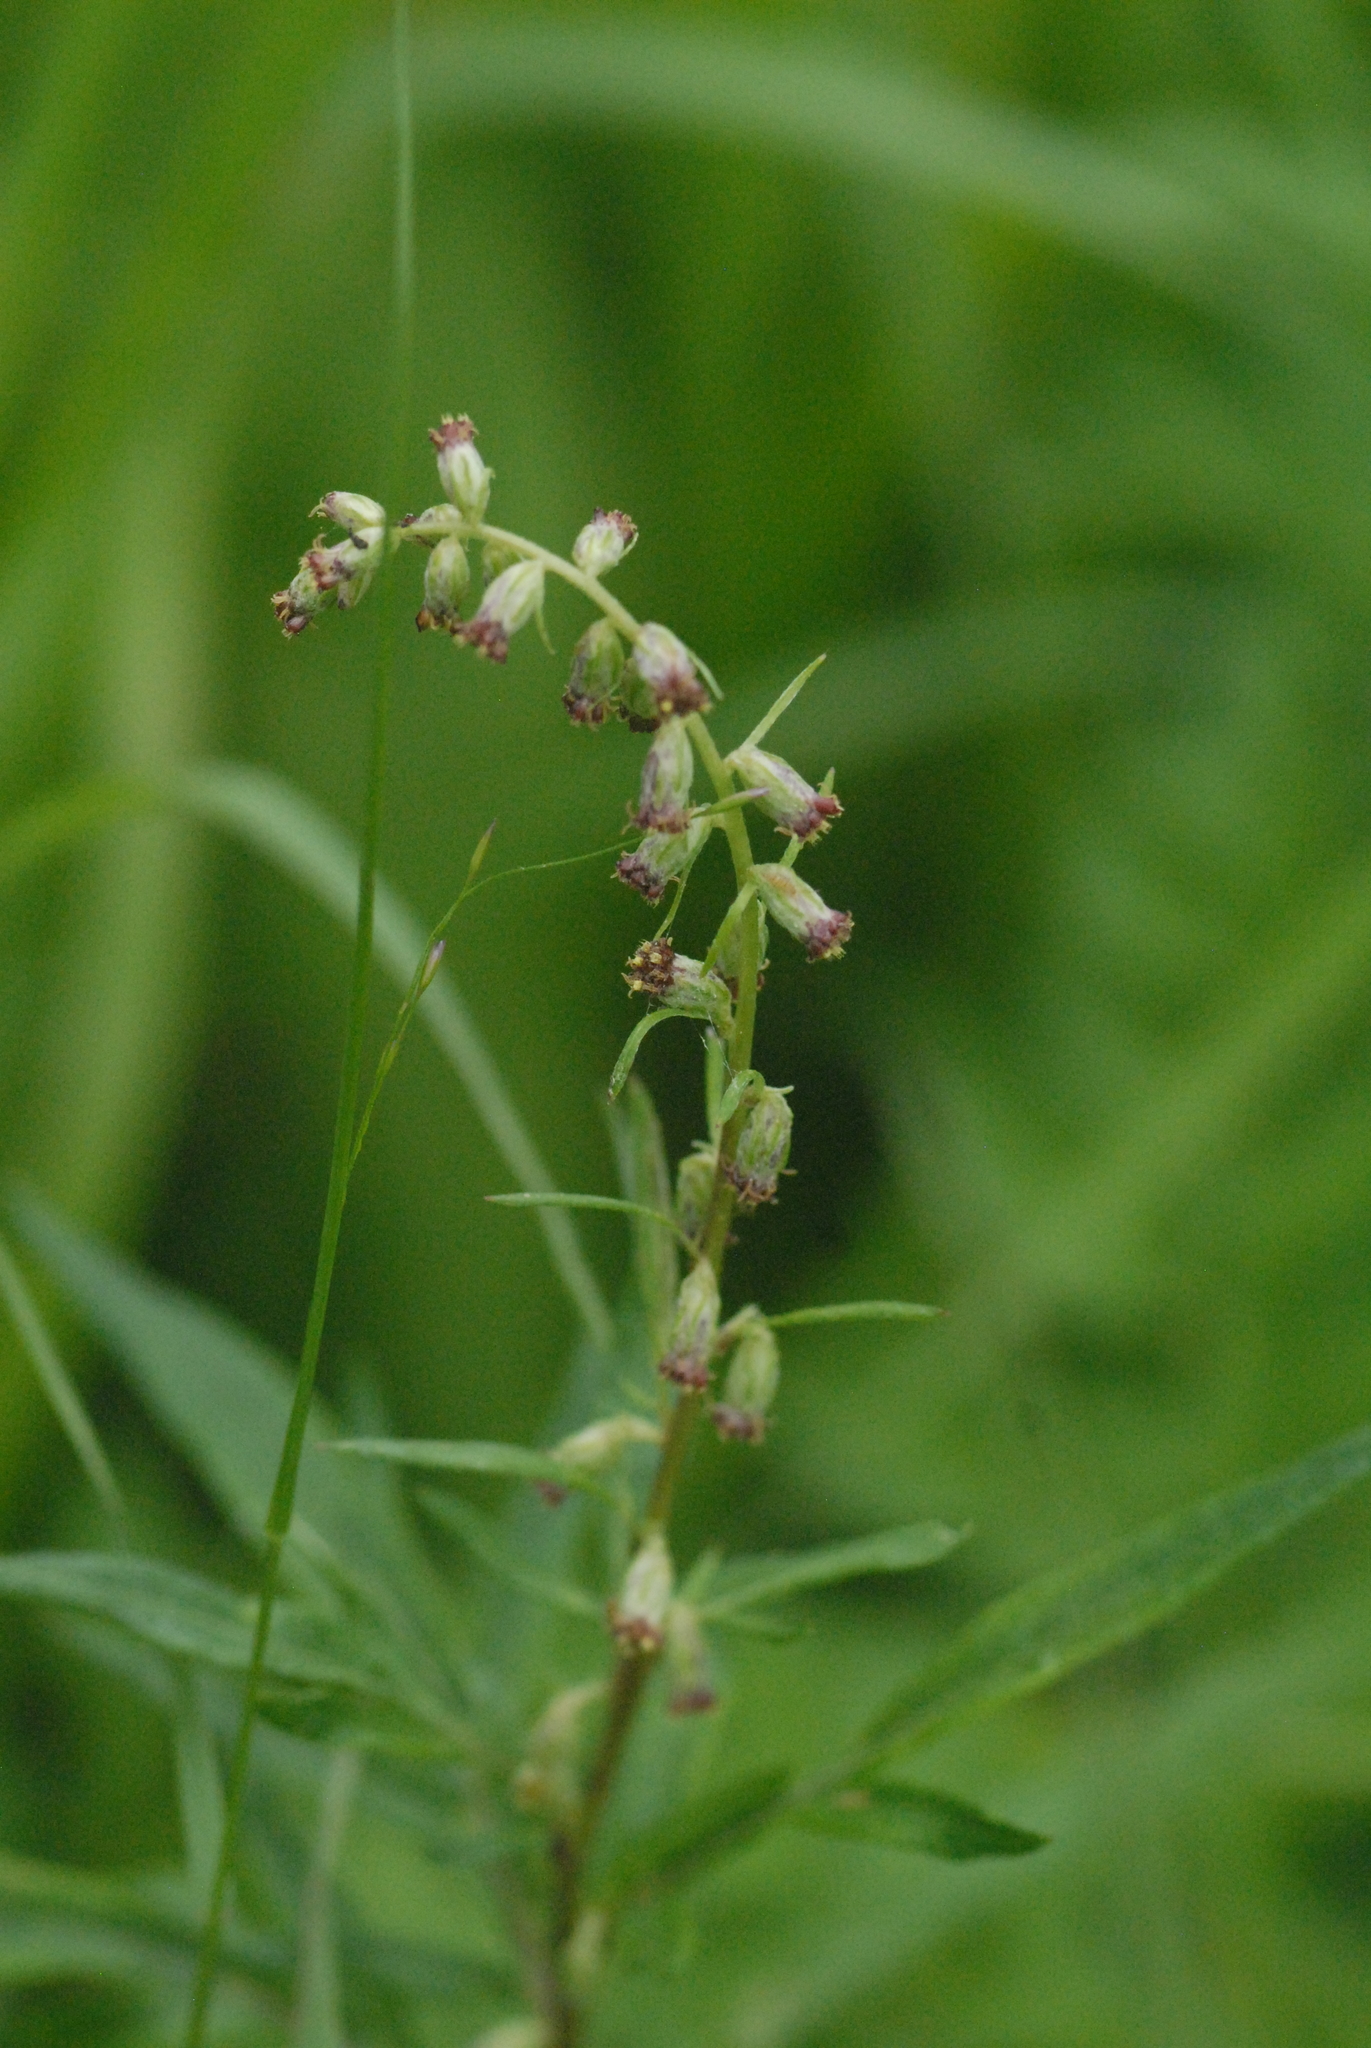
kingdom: Plantae
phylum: Tracheophyta
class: Magnoliopsida
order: Asterales
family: Asteraceae
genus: Artemisia
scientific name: Artemisia vulgaris
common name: Mugwort
